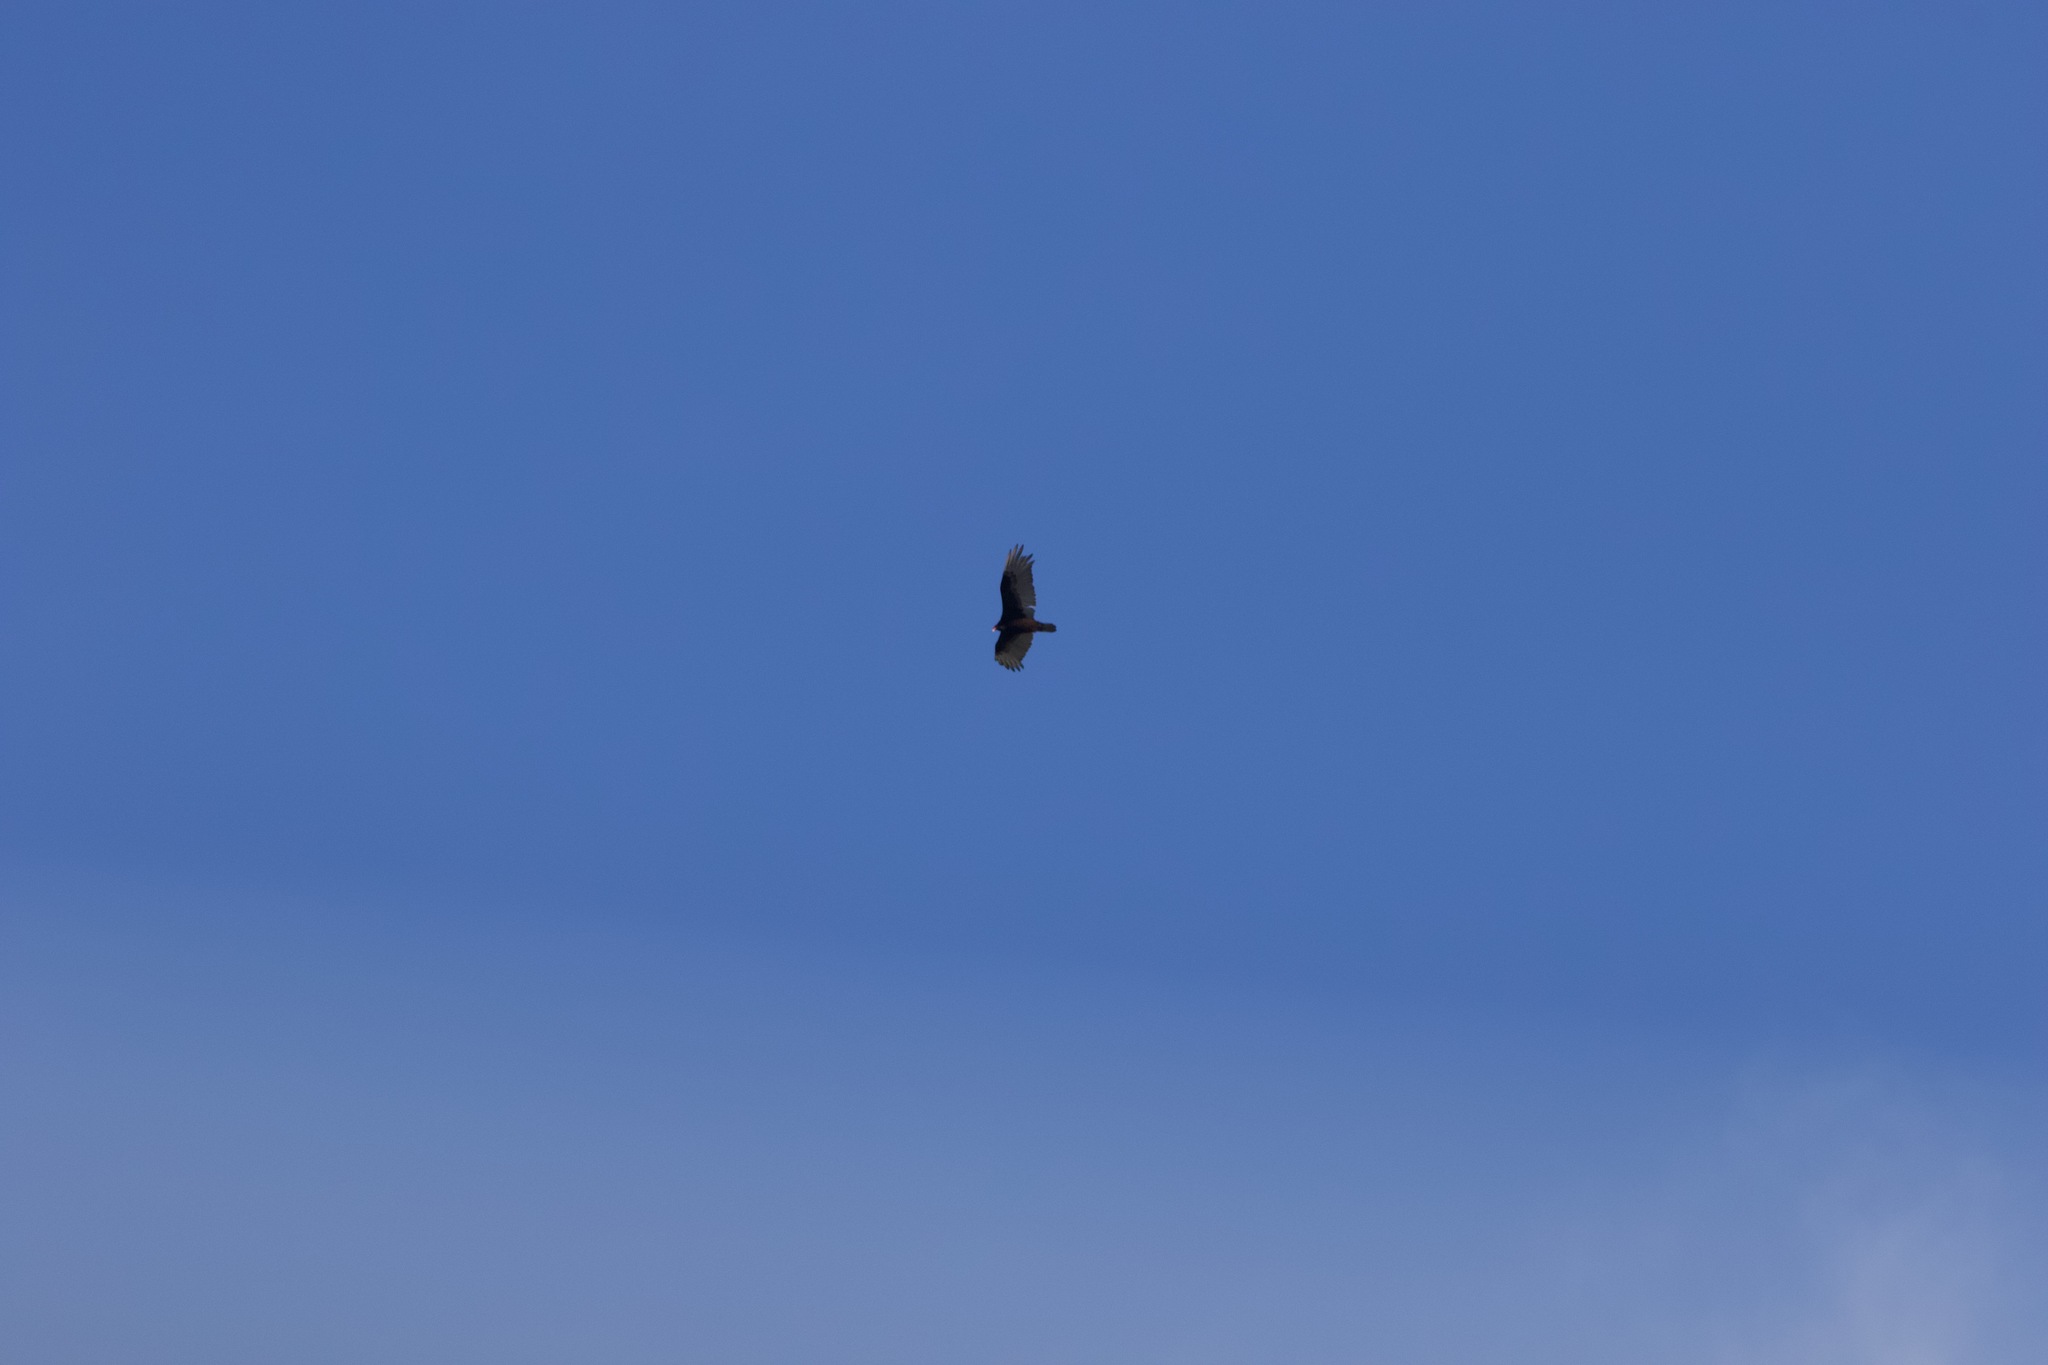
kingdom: Animalia
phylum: Chordata
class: Aves
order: Accipitriformes
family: Cathartidae
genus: Cathartes
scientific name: Cathartes aura
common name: Turkey vulture
